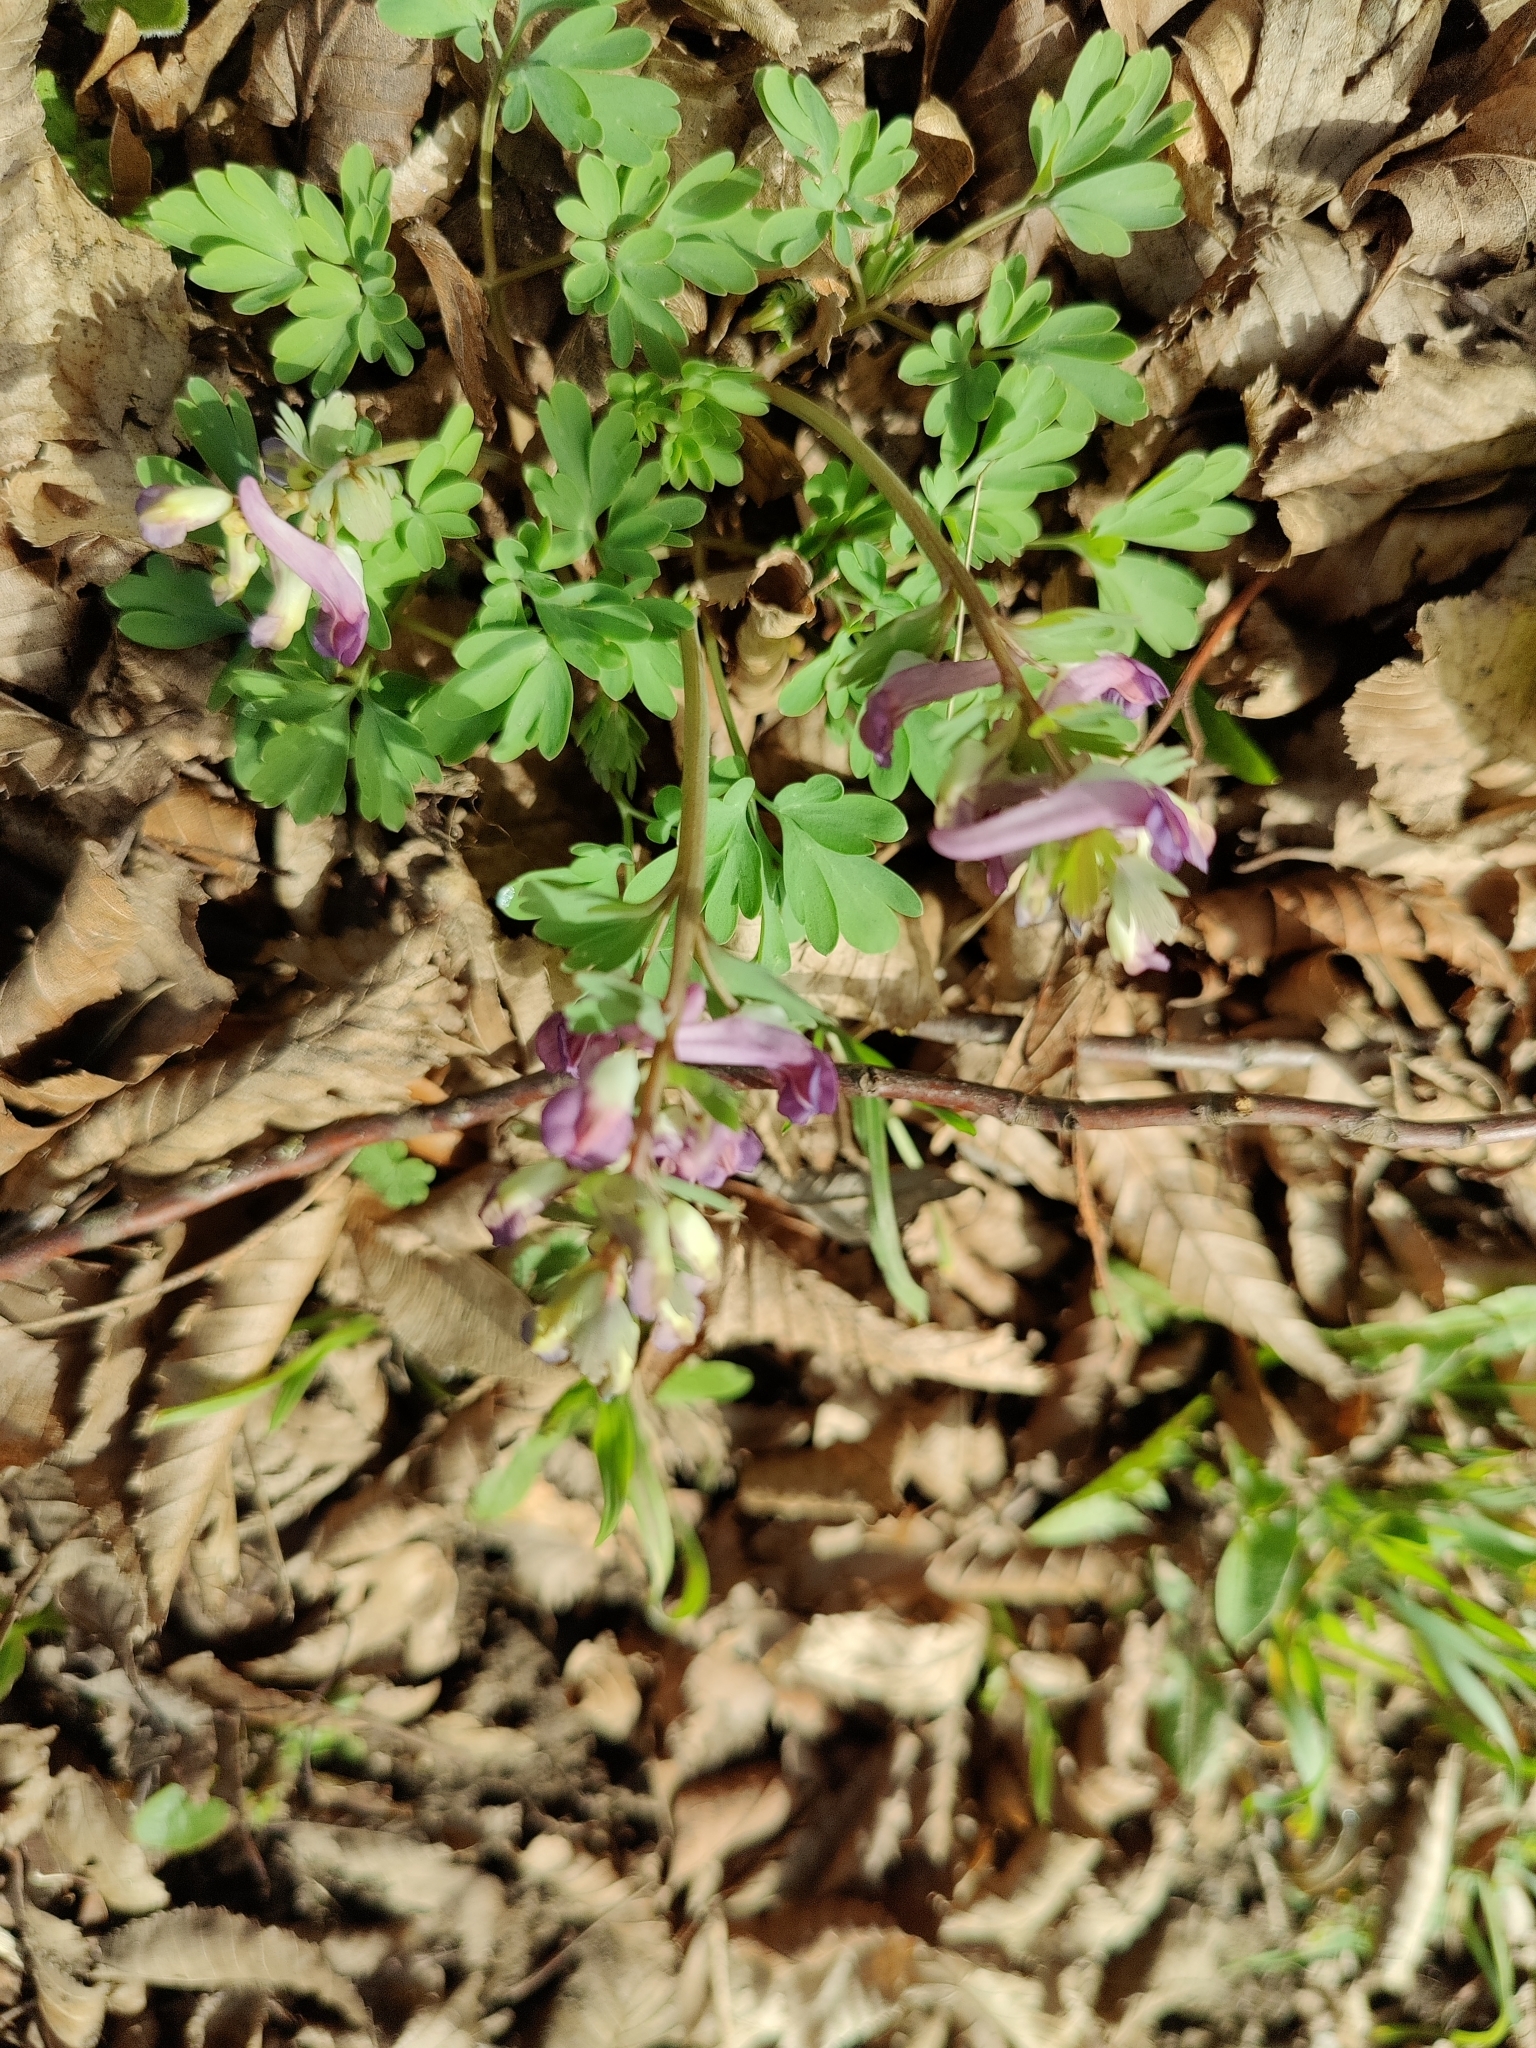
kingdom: Plantae
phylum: Tracheophyta
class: Magnoliopsida
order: Ranunculales
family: Papaveraceae
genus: Corydalis
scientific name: Corydalis solida
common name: Bird-in-a-bush
